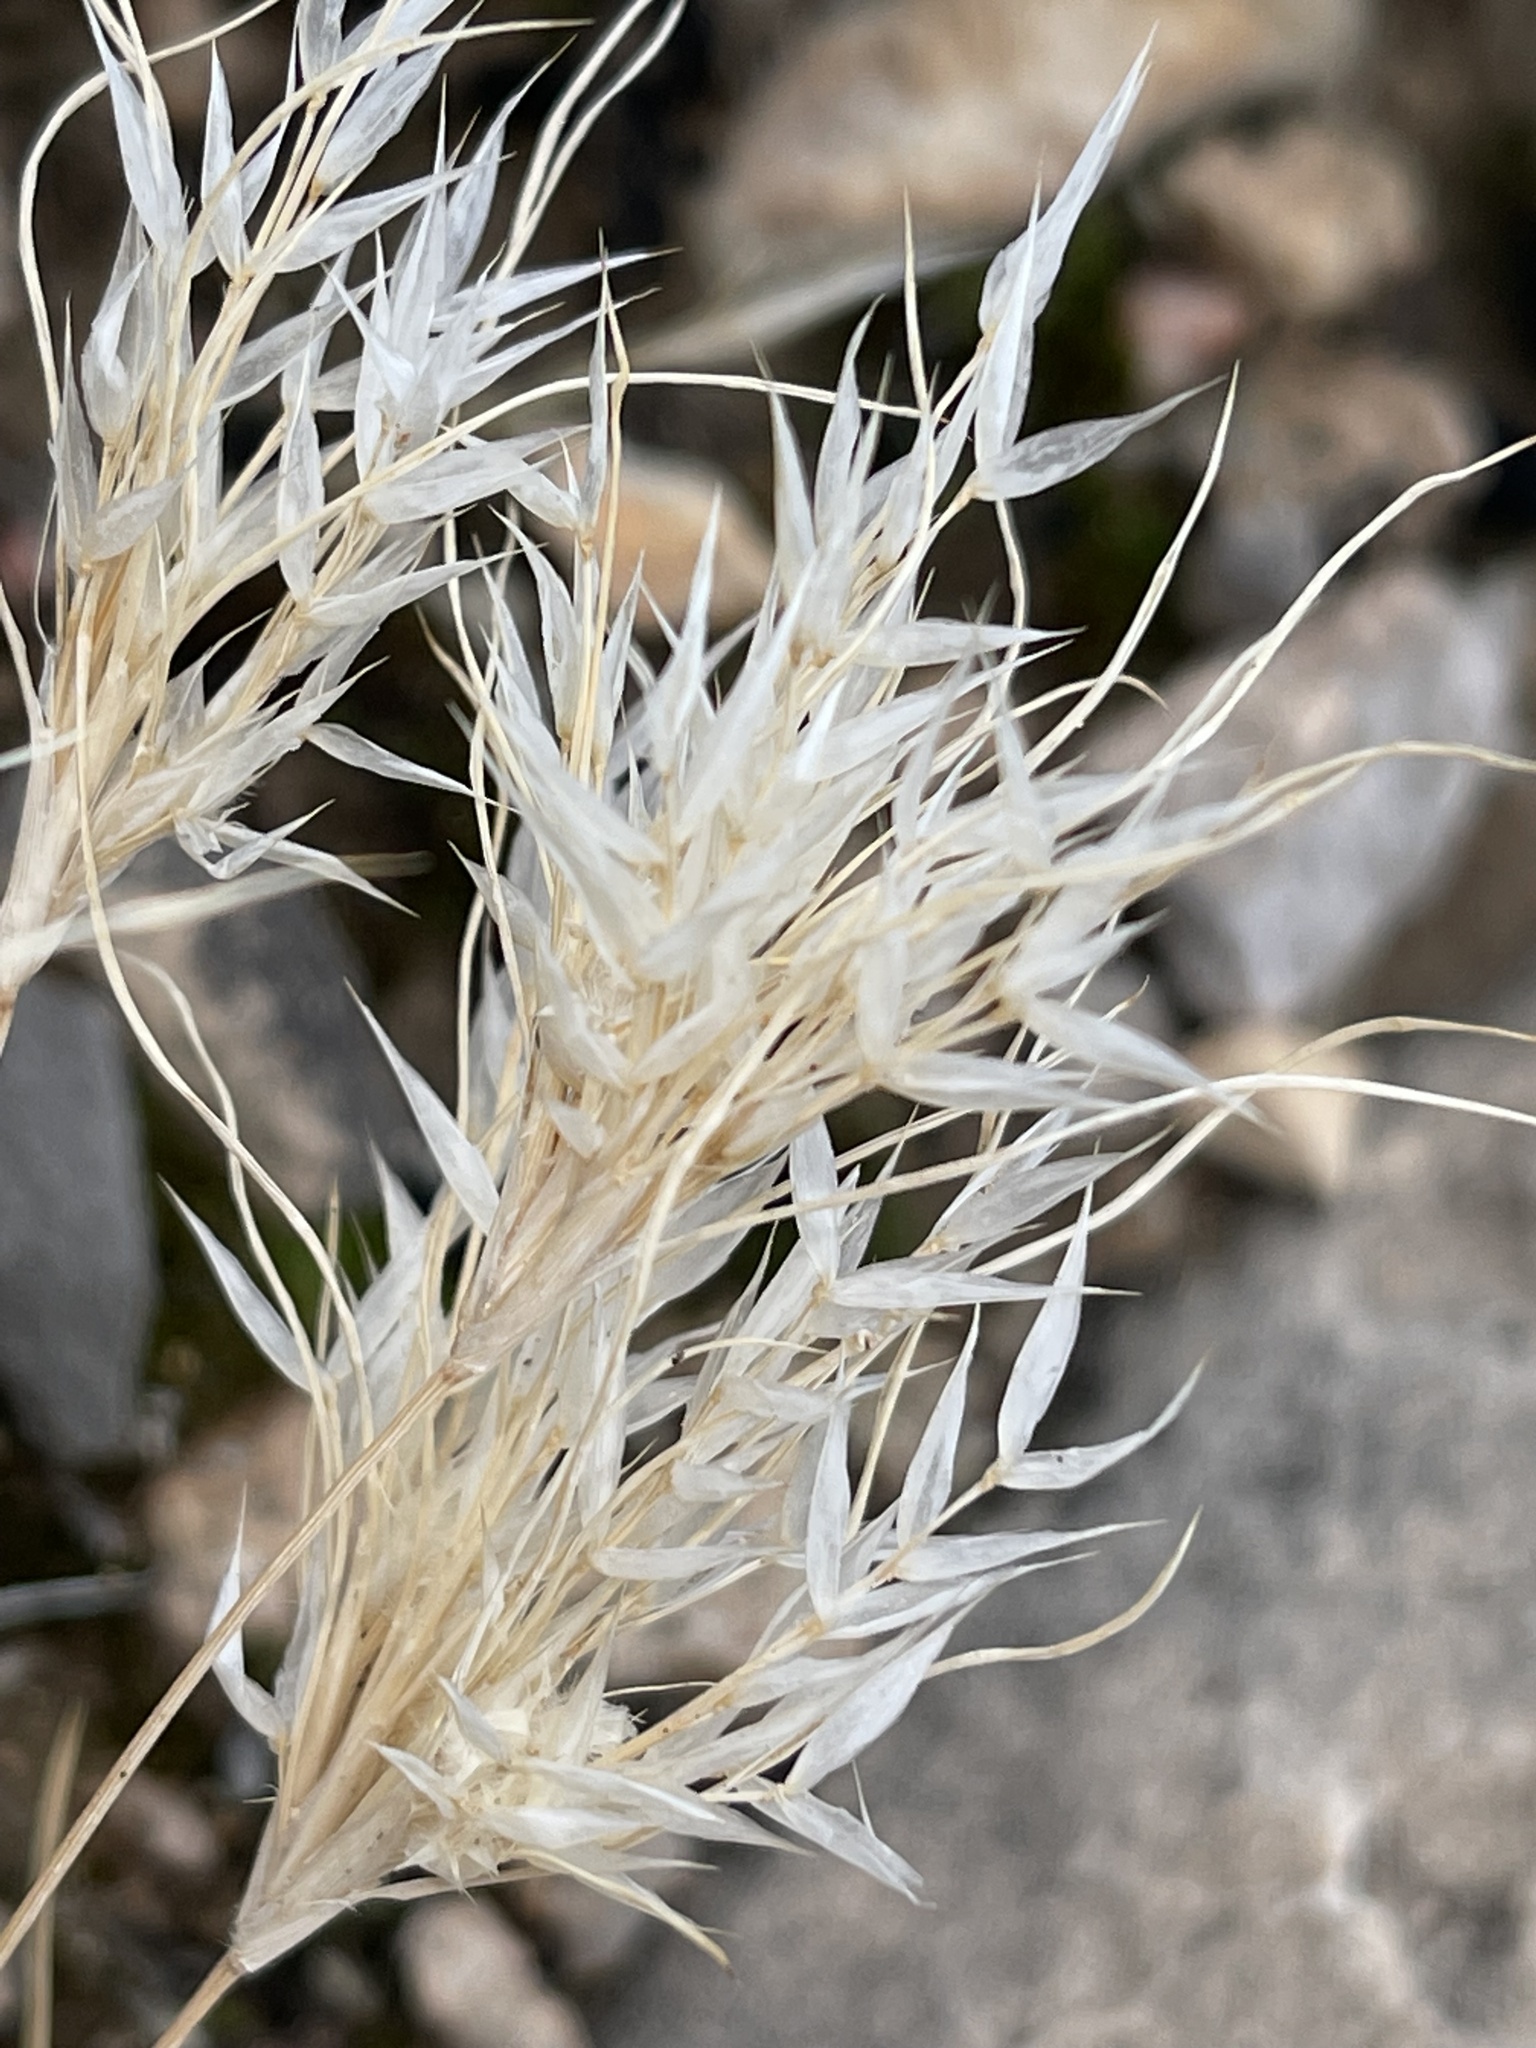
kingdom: Plantae
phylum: Tracheophyta
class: Liliopsida
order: Poales
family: Poaceae
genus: Dasyochloa
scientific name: Dasyochloa pulchella
